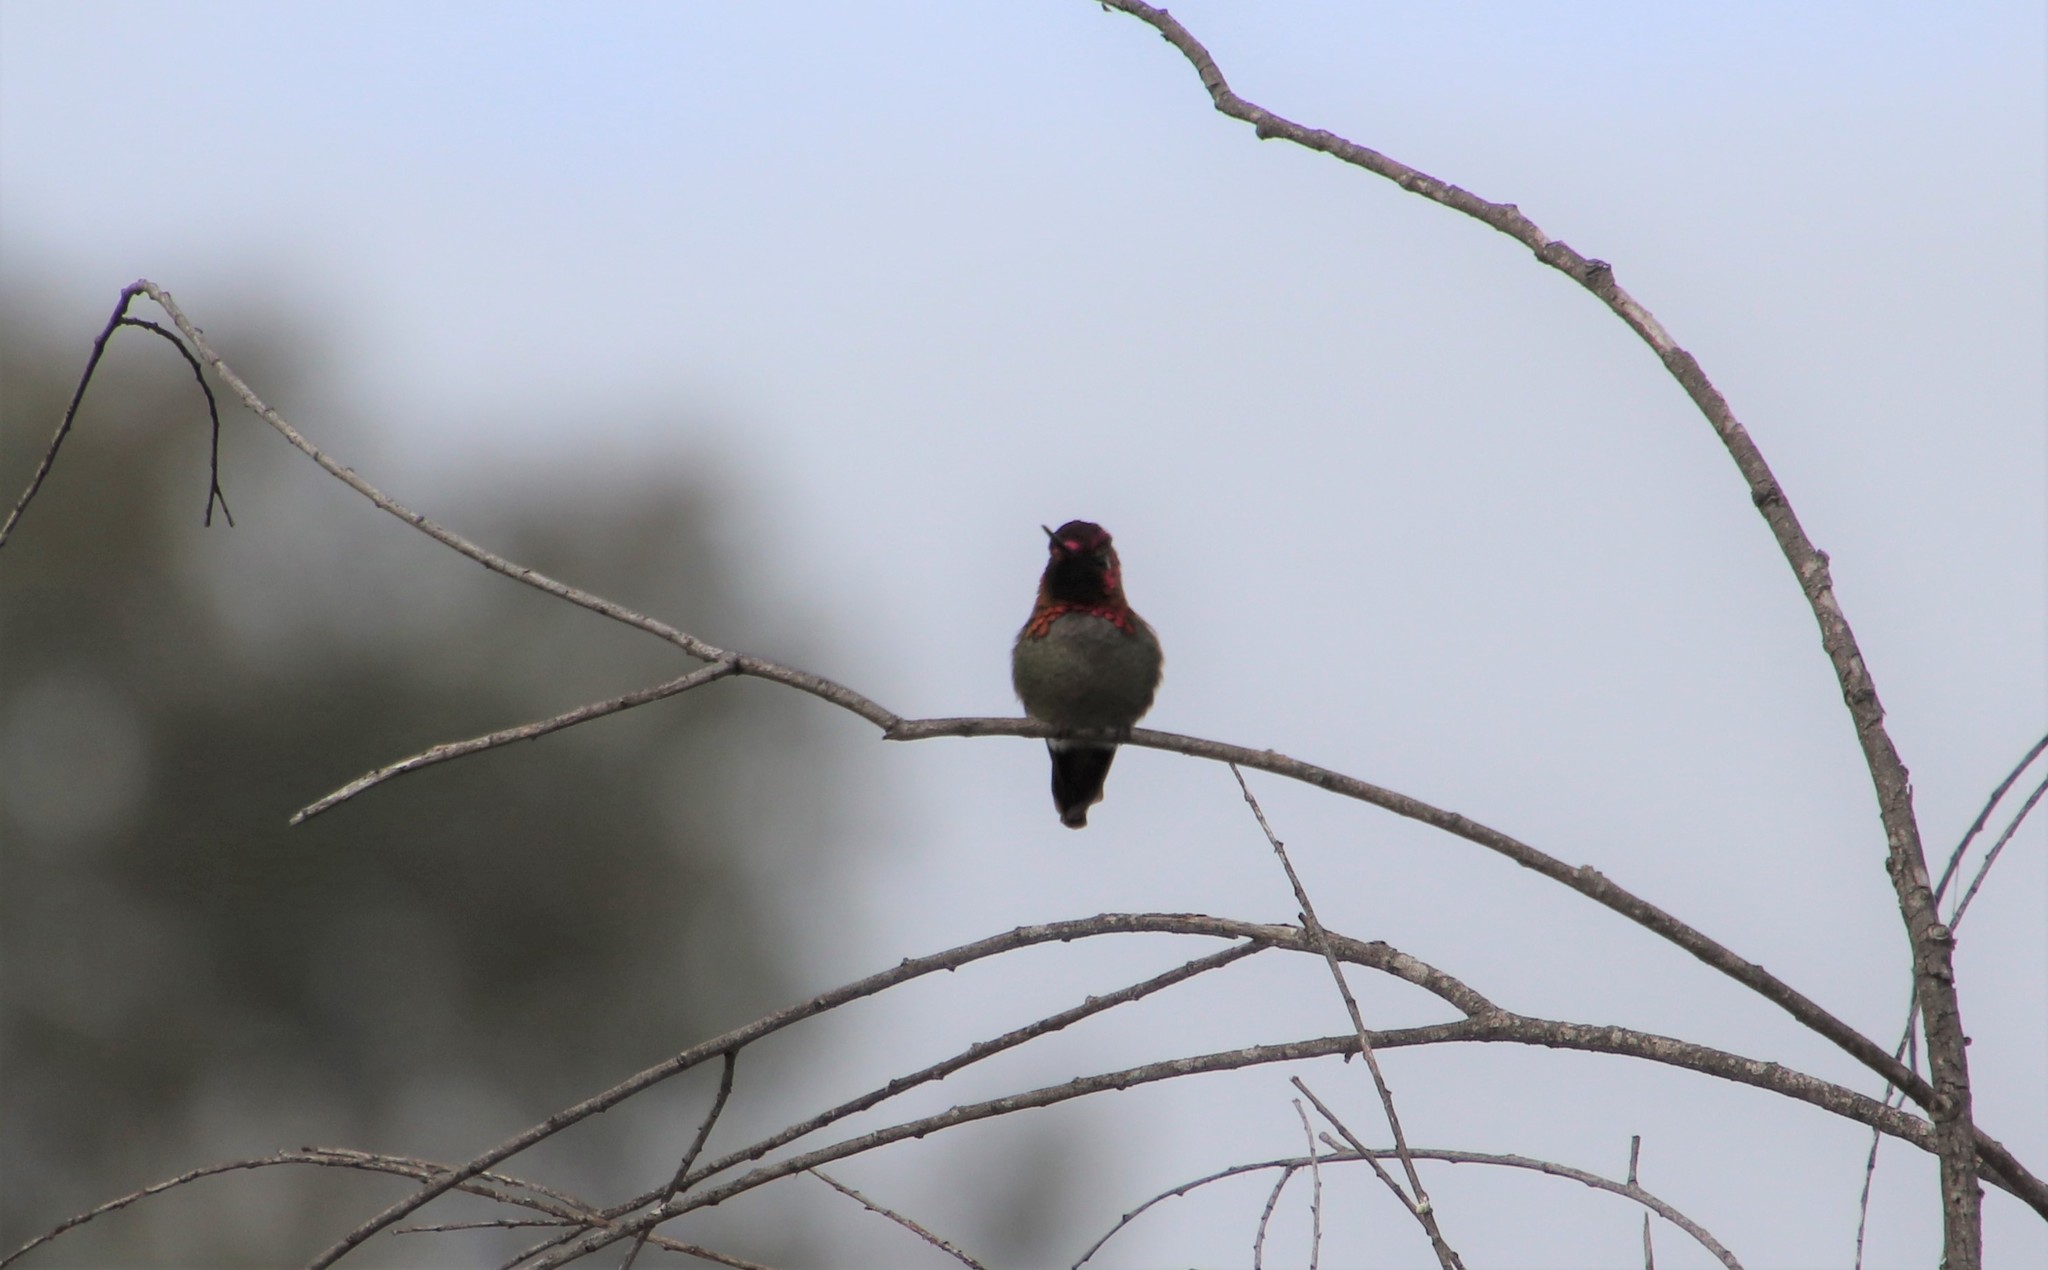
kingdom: Animalia
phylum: Chordata
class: Aves
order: Apodiformes
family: Trochilidae
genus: Calypte
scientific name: Calypte anna
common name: Anna's hummingbird
